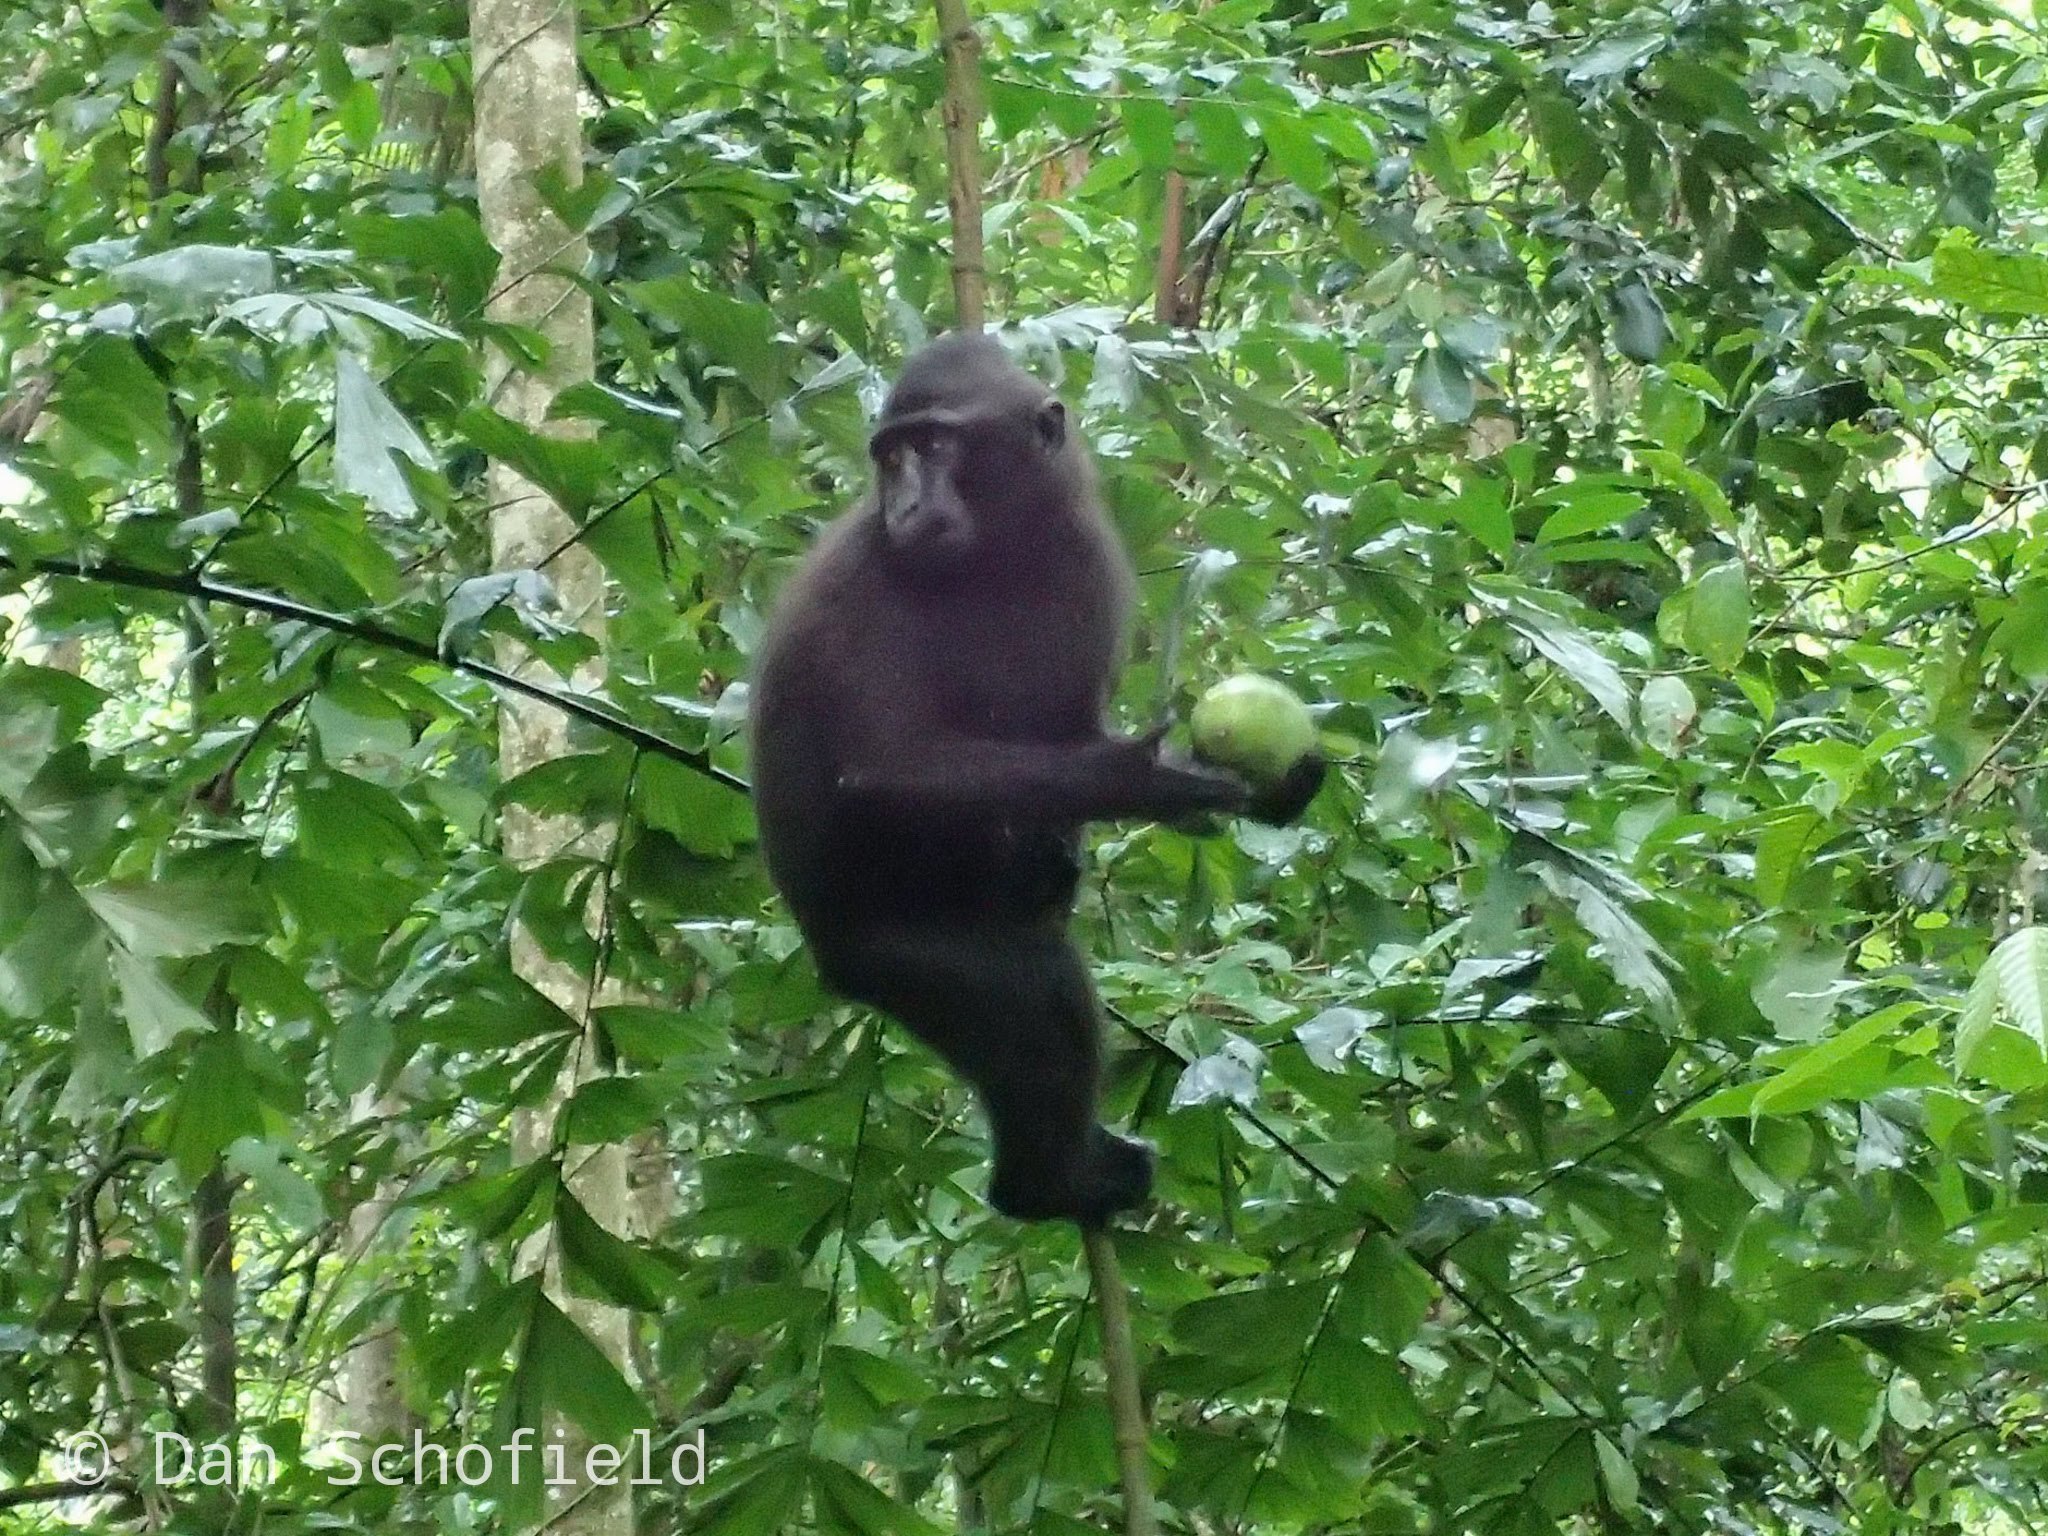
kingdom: Animalia
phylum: Chordata
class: Mammalia
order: Primates
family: Cercopithecidae
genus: Macaca
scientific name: Macaca nigra
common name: Celebes crested macaque
